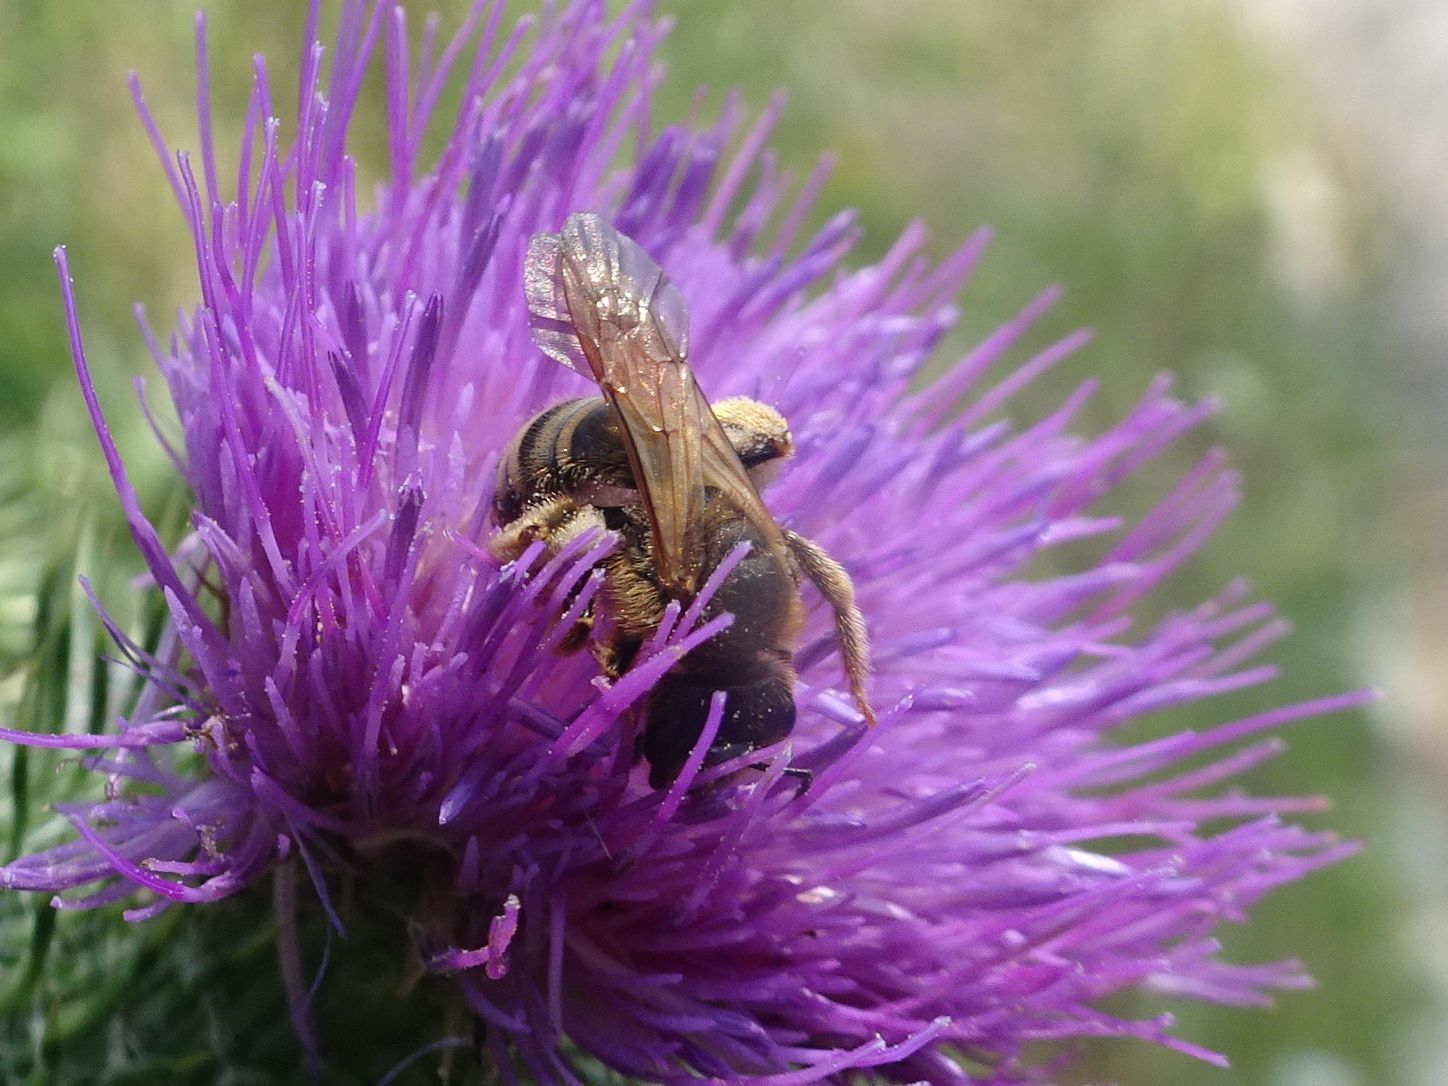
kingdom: Animalia
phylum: Arthropoda
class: Insecta
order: Hymenoptera
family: Halictidae
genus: Halictus
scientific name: Halictus scabiosae
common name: Great banded furrow bee
